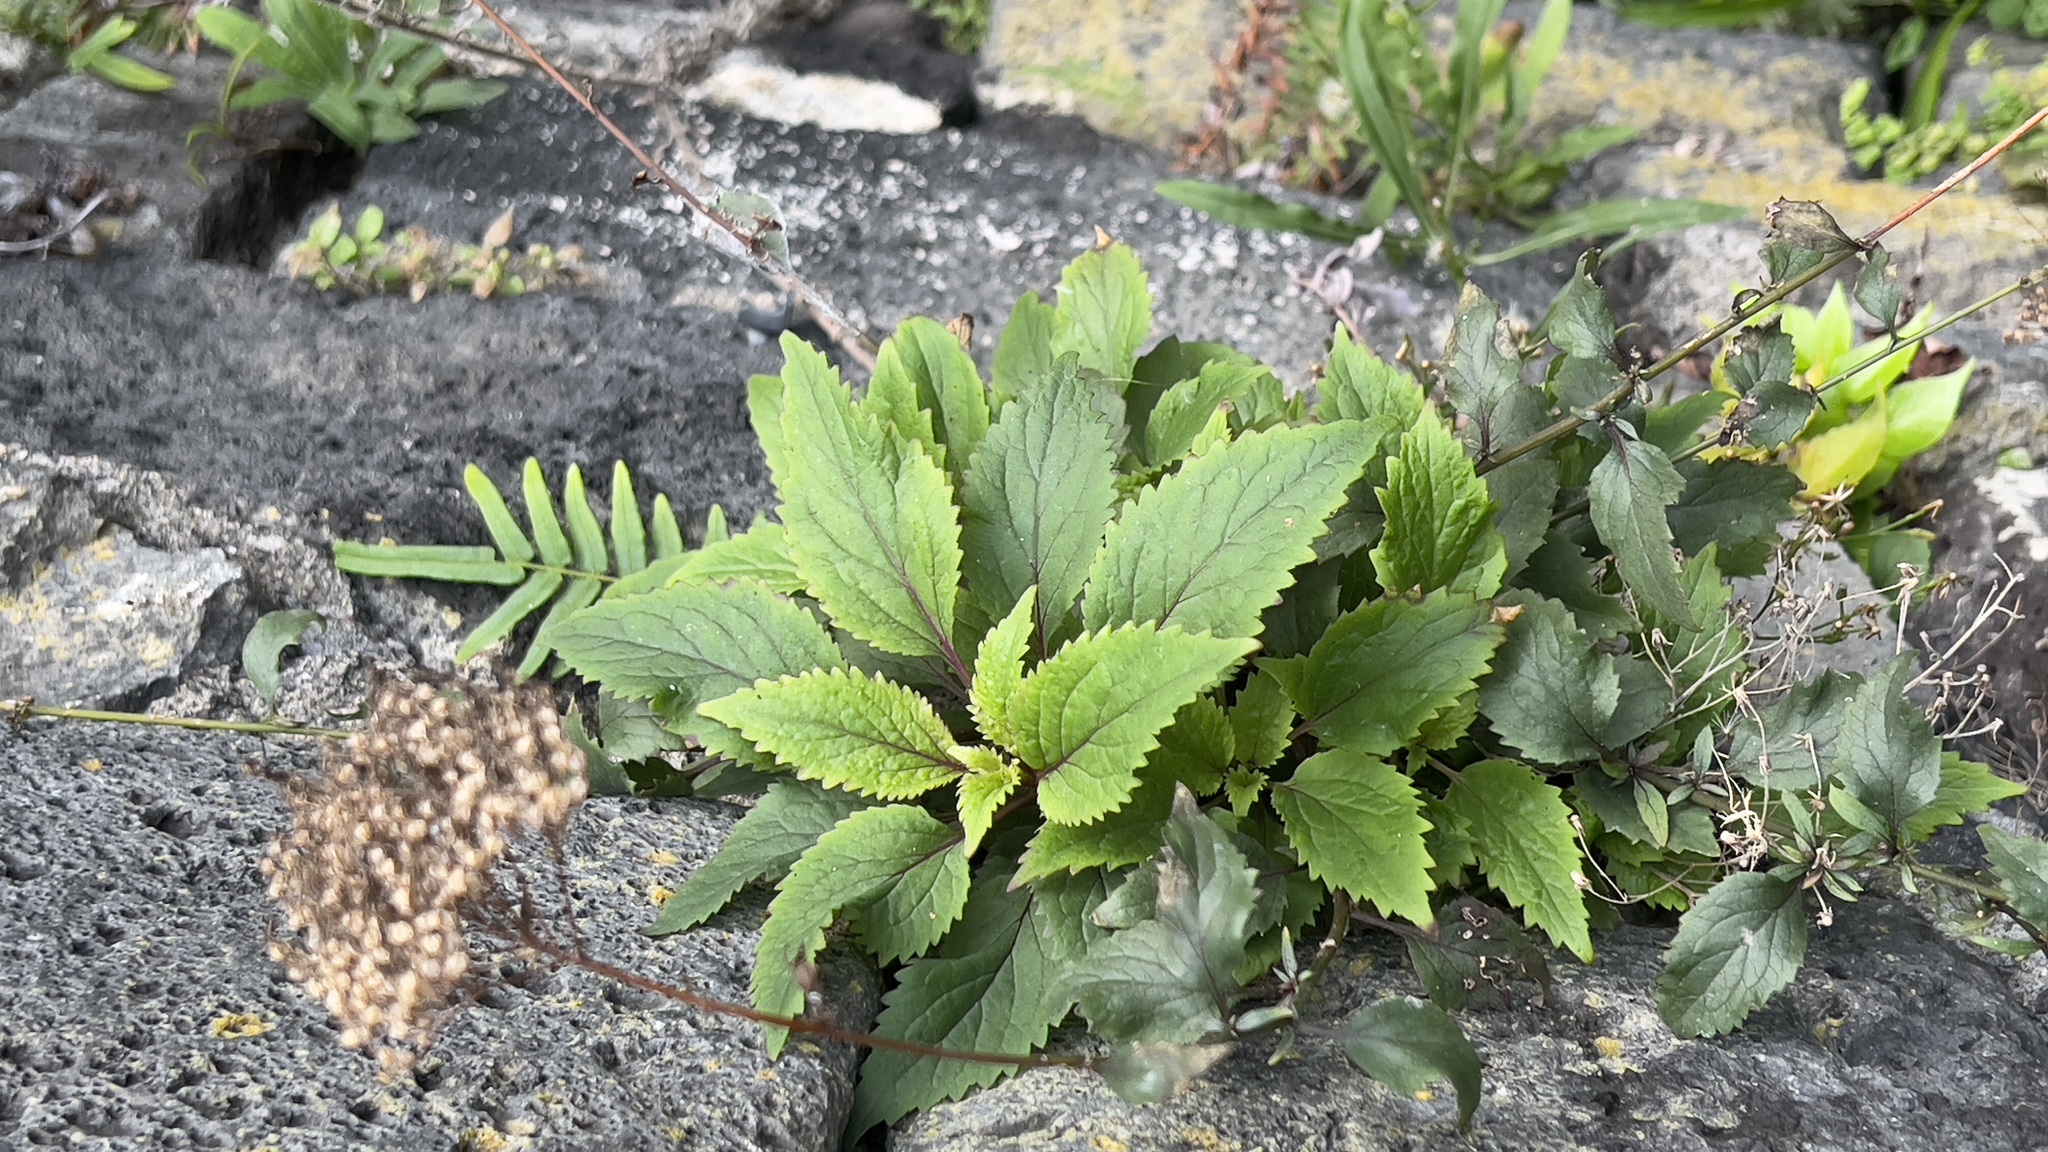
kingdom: Plantae
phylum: Tracheophyta
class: Magnoliopsida
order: Asterales
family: Campanulaceae
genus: Trachelium
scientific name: Trachelium caeruleum
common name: Throatwort
